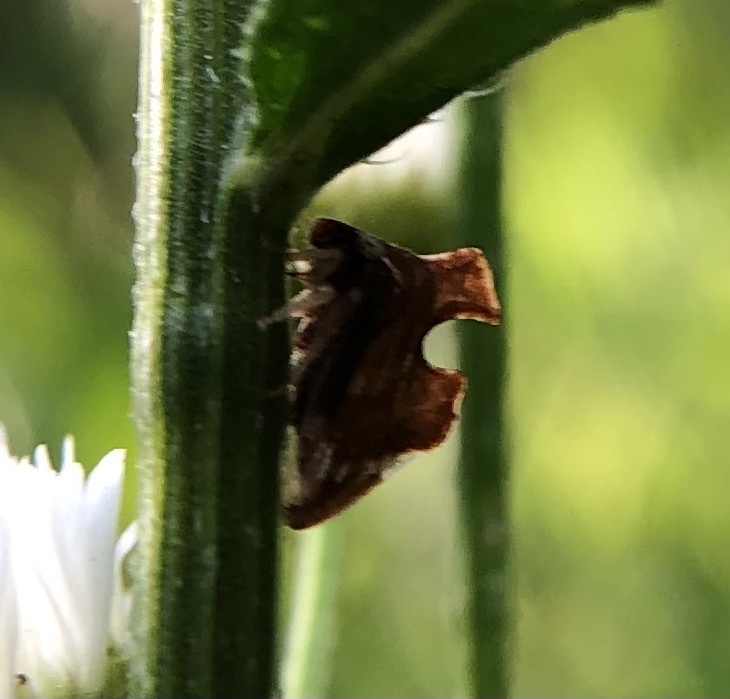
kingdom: Animalia
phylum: Arthropoda
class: Insecta
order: Hemiptera
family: Membracidae
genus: Entylia
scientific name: Entylia carinata
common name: Keeled treehopper
